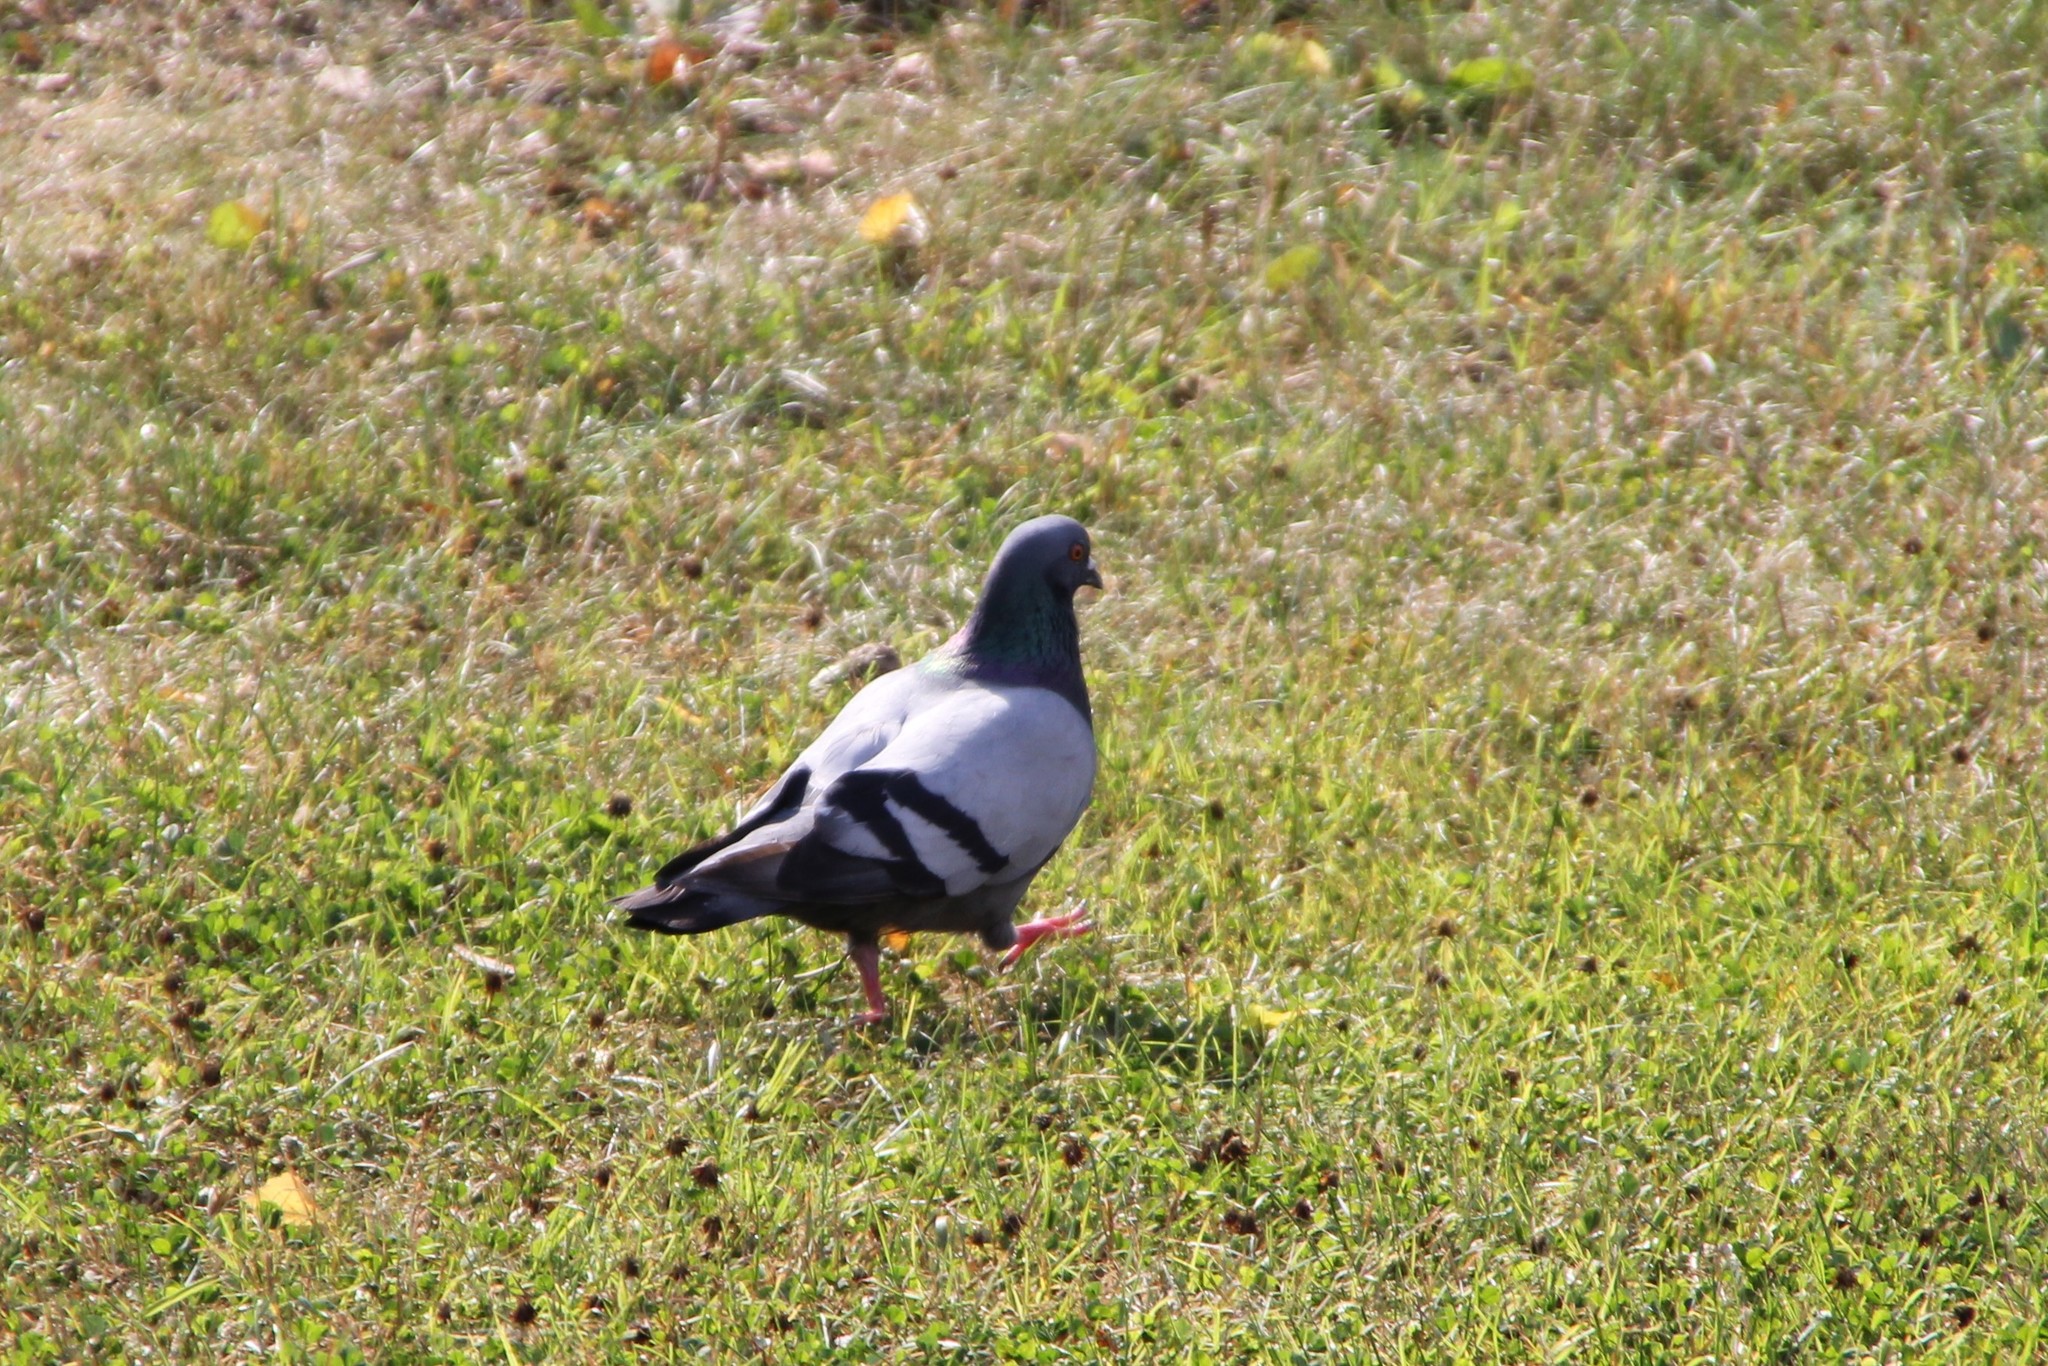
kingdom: Animalia
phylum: Chordata
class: Aves
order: Columbiformes
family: Columbidae
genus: Columba
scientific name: Columba livia
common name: Rock pigeon
